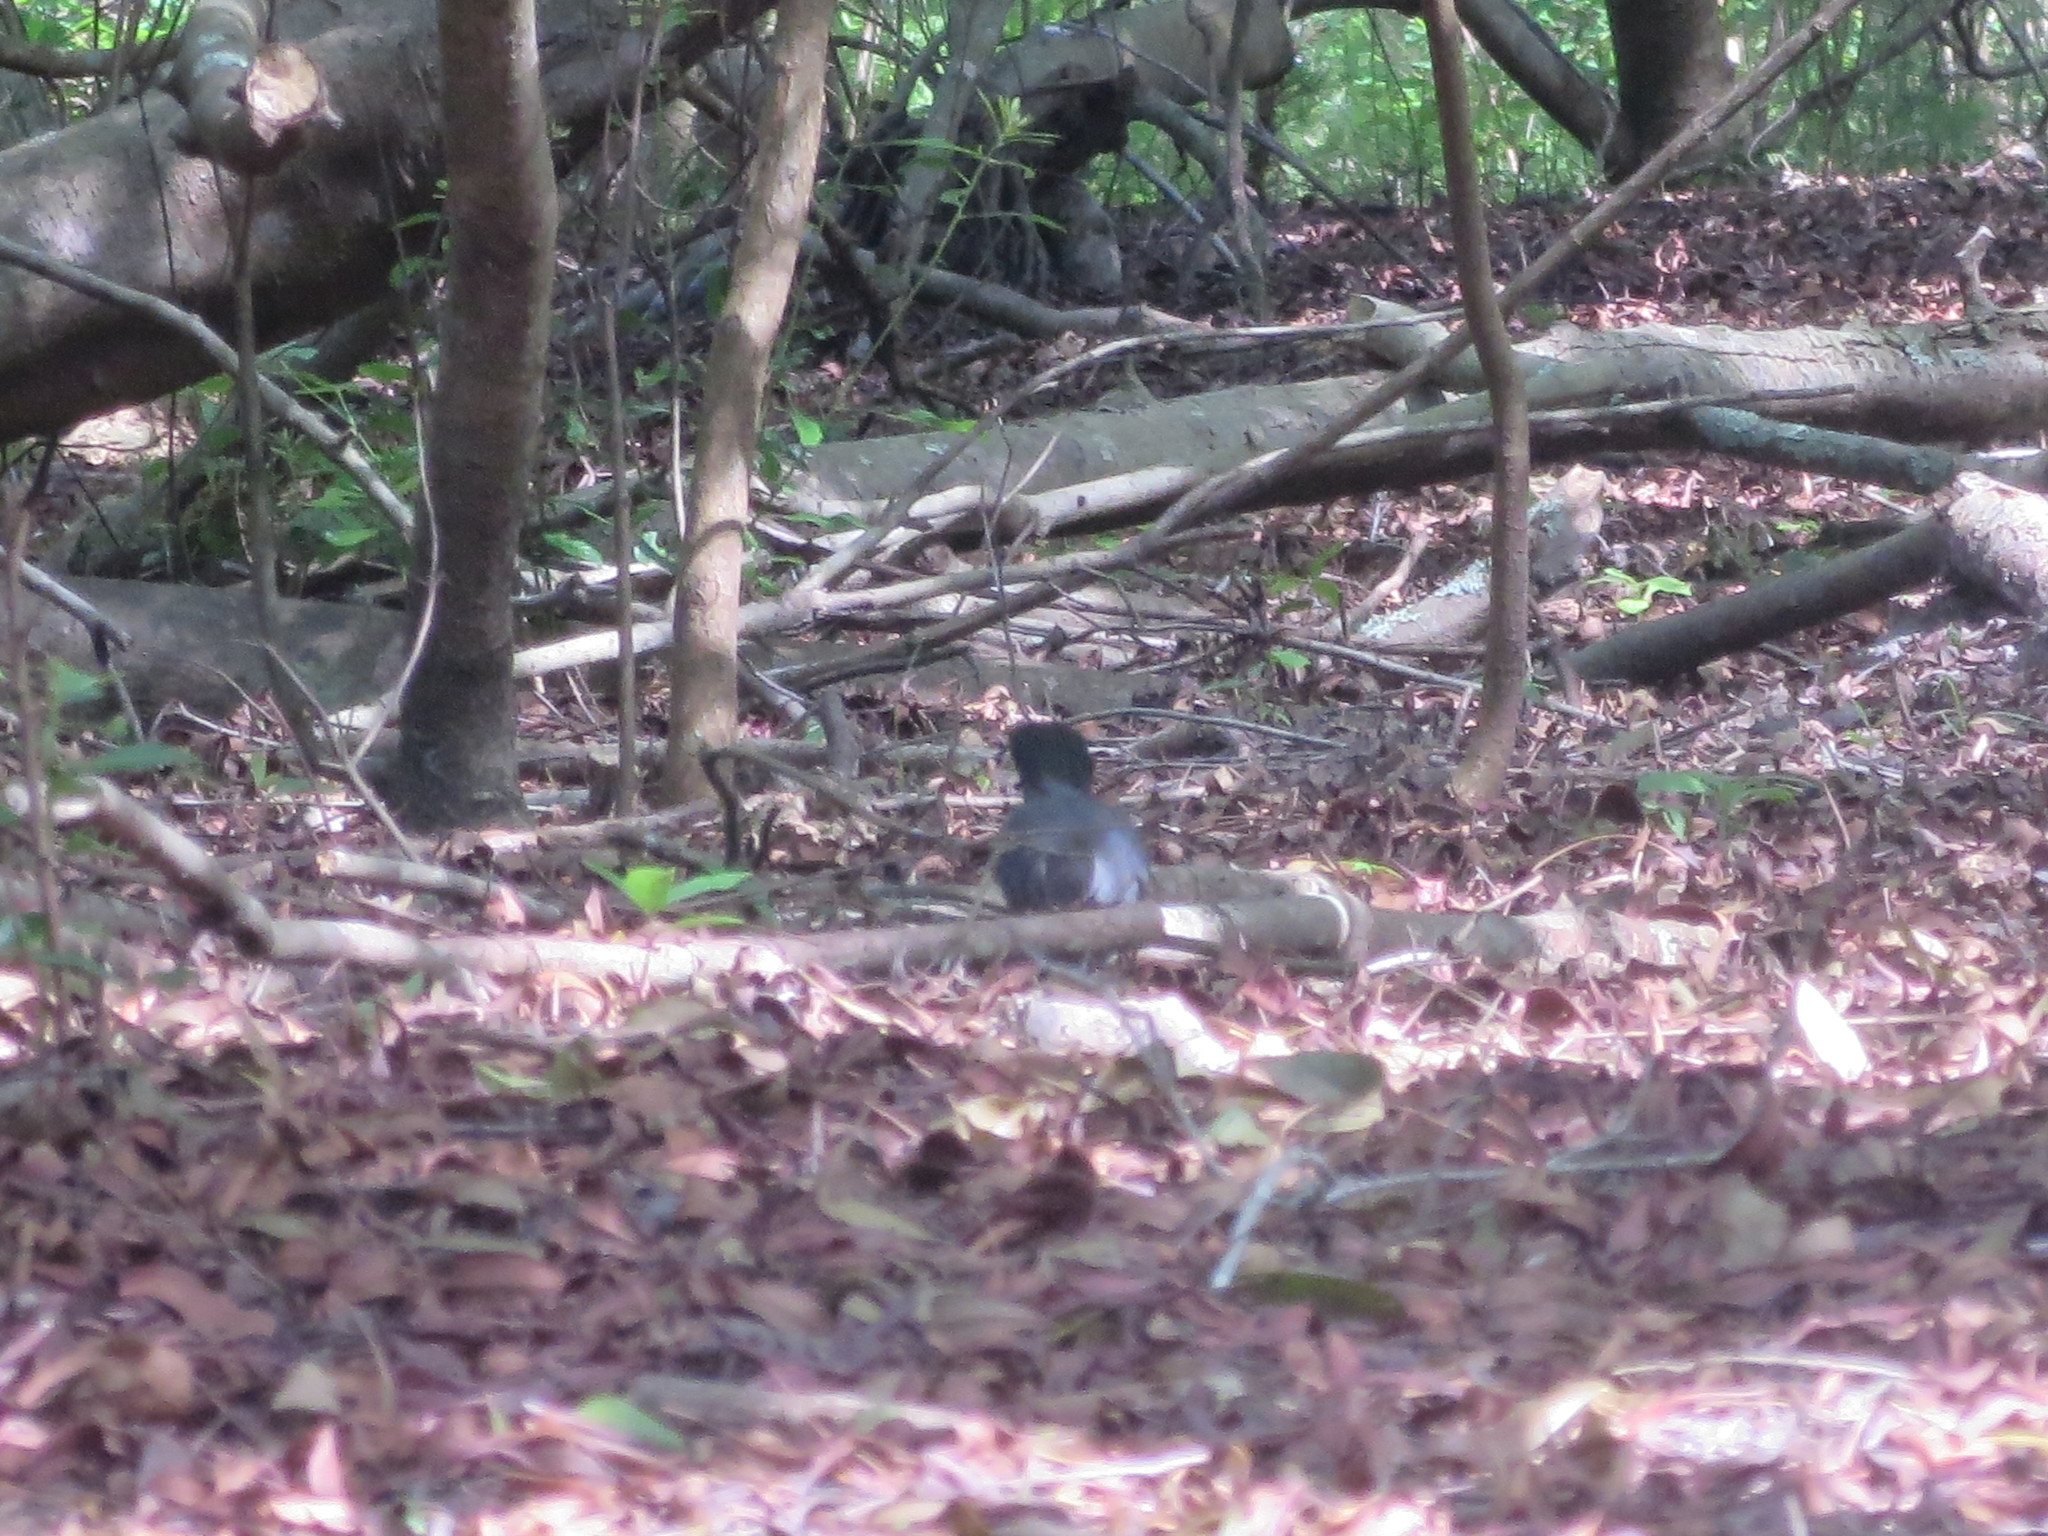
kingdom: Animalia
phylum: Chordata
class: Aves
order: Passeriformes
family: Mimidae
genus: Dumetella
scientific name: Dumetella carolinensis
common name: Gray catbird
